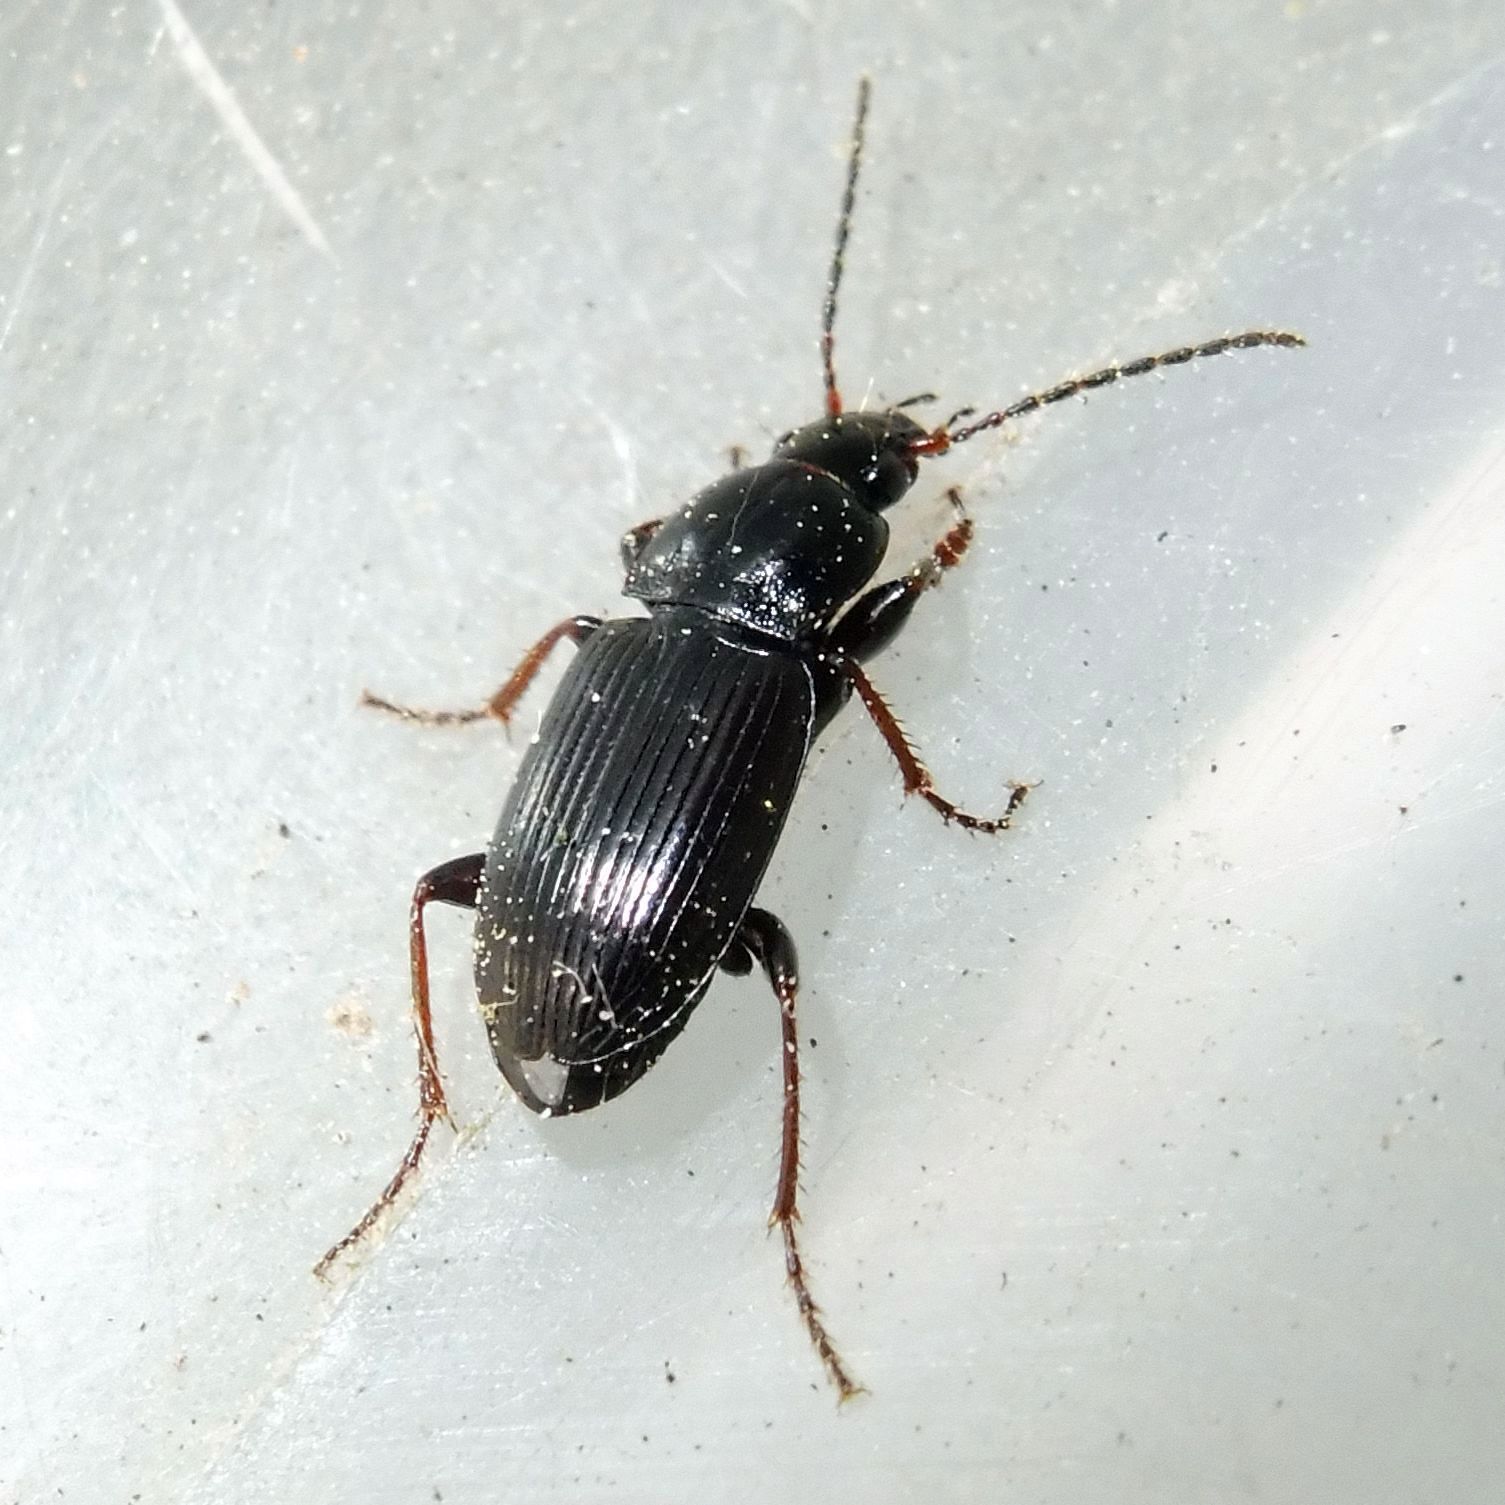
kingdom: Animalia
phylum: Arthropoda
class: Insecta
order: Coleoptera
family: Carabidae
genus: Pterostichus
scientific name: Pterostichus vernalis
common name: Spring harp ground beetle
